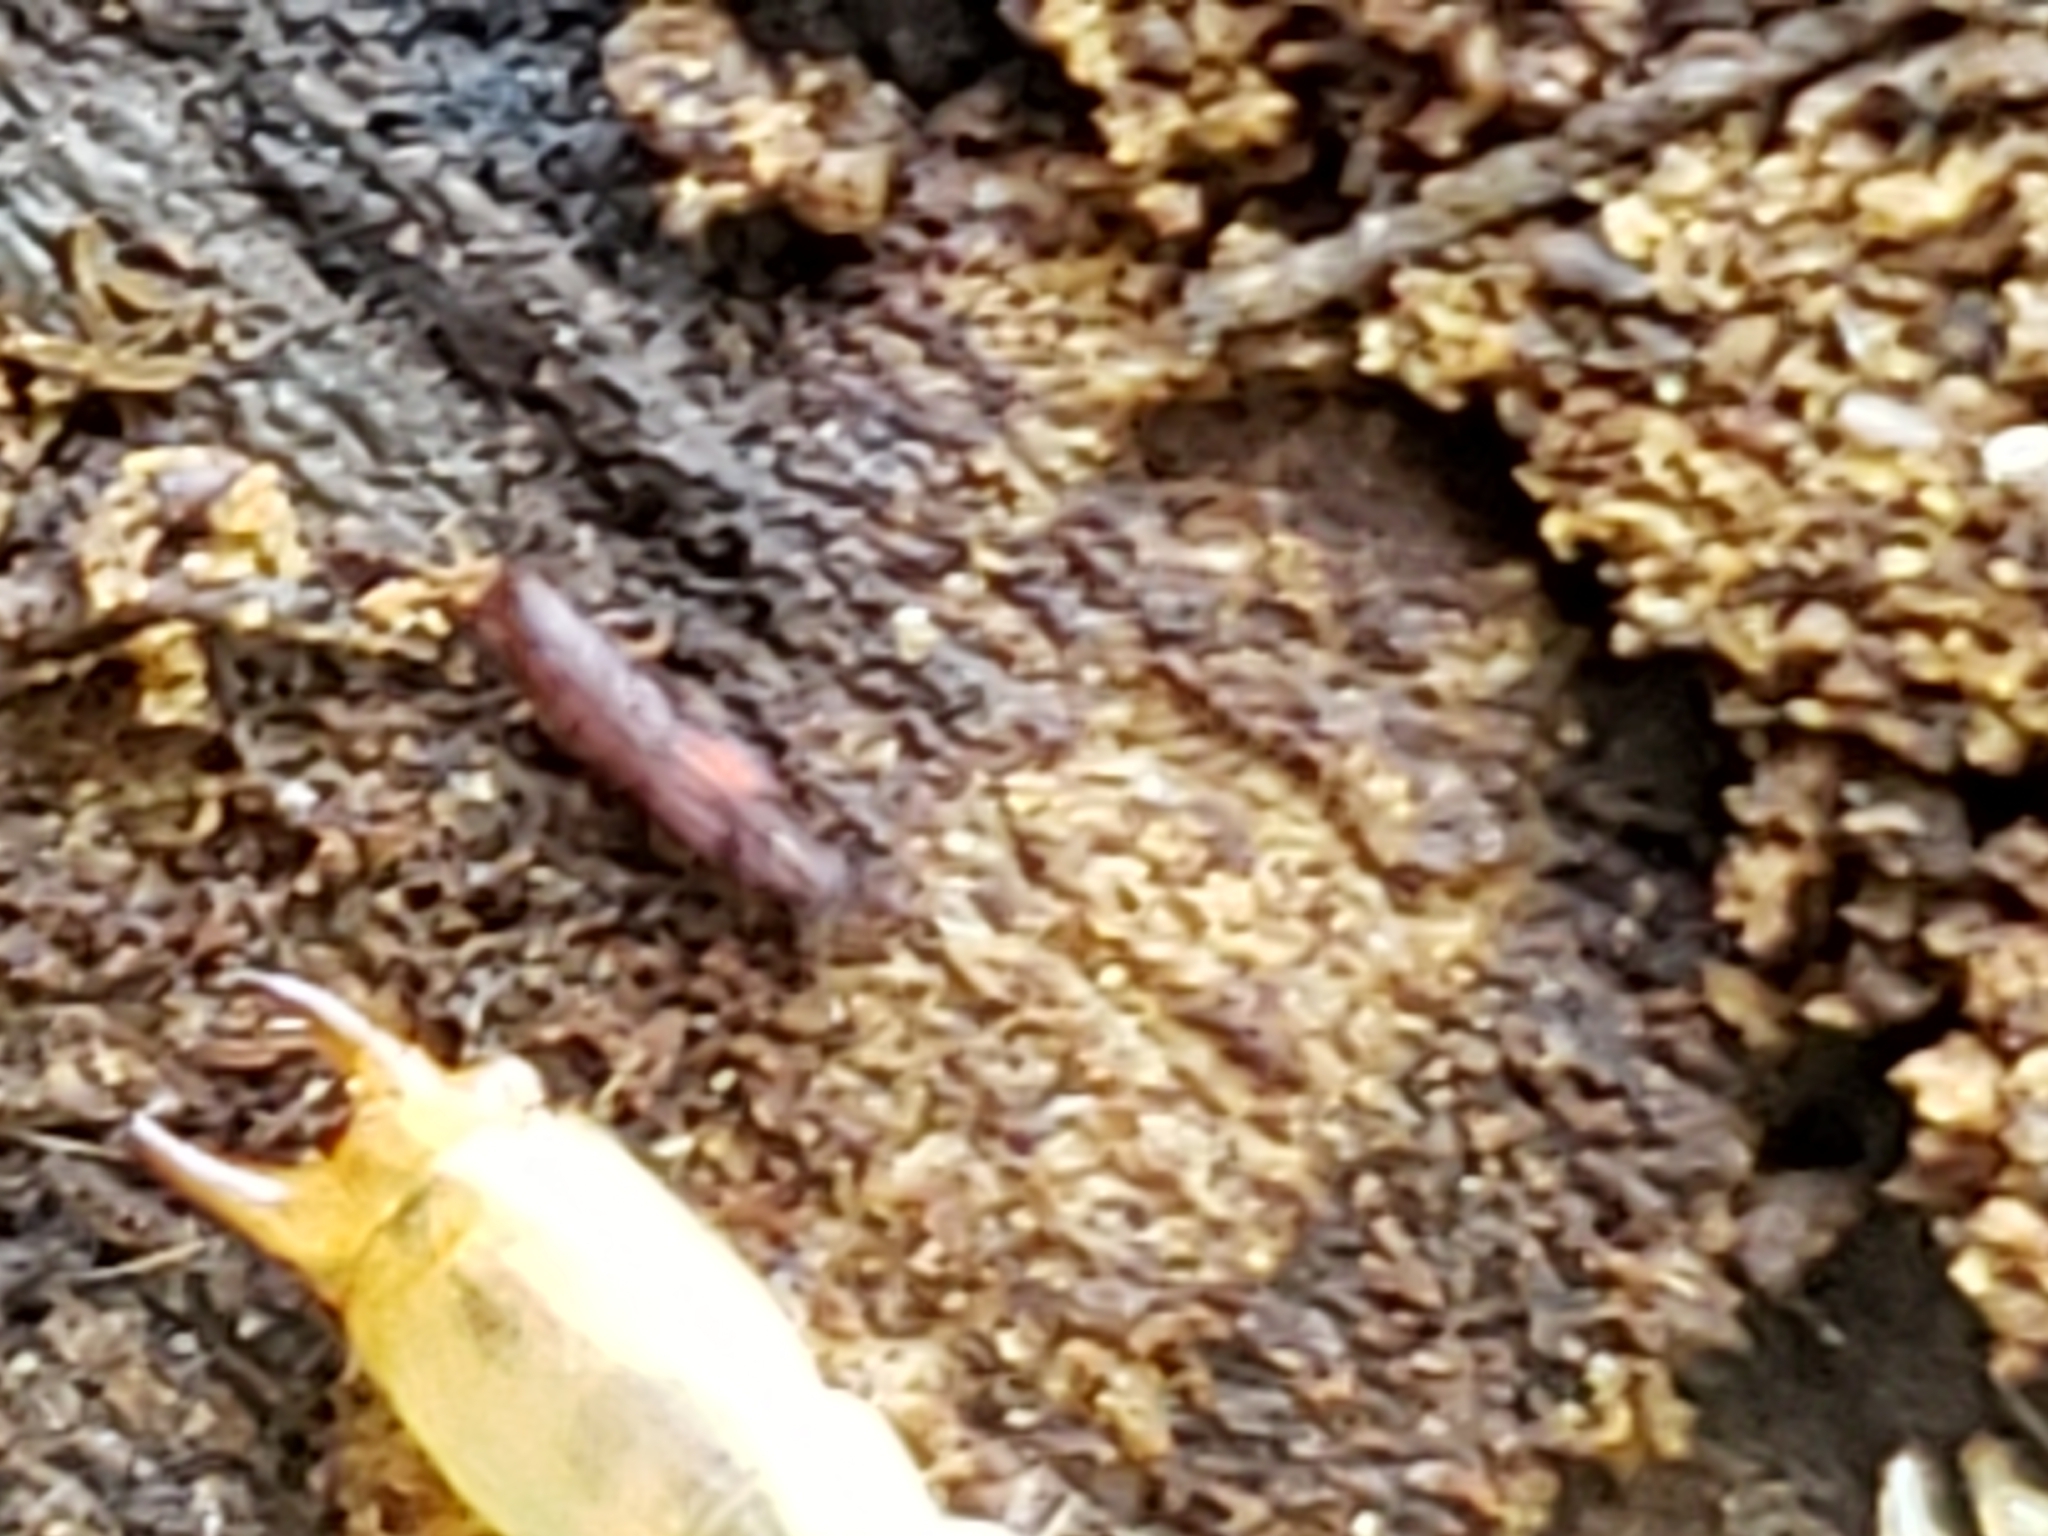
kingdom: Animalia
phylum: Arthropoda
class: Insecta
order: Coleoptera
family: Staphylinidae
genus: Thoracophorus
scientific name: Thoracophorus costalis
